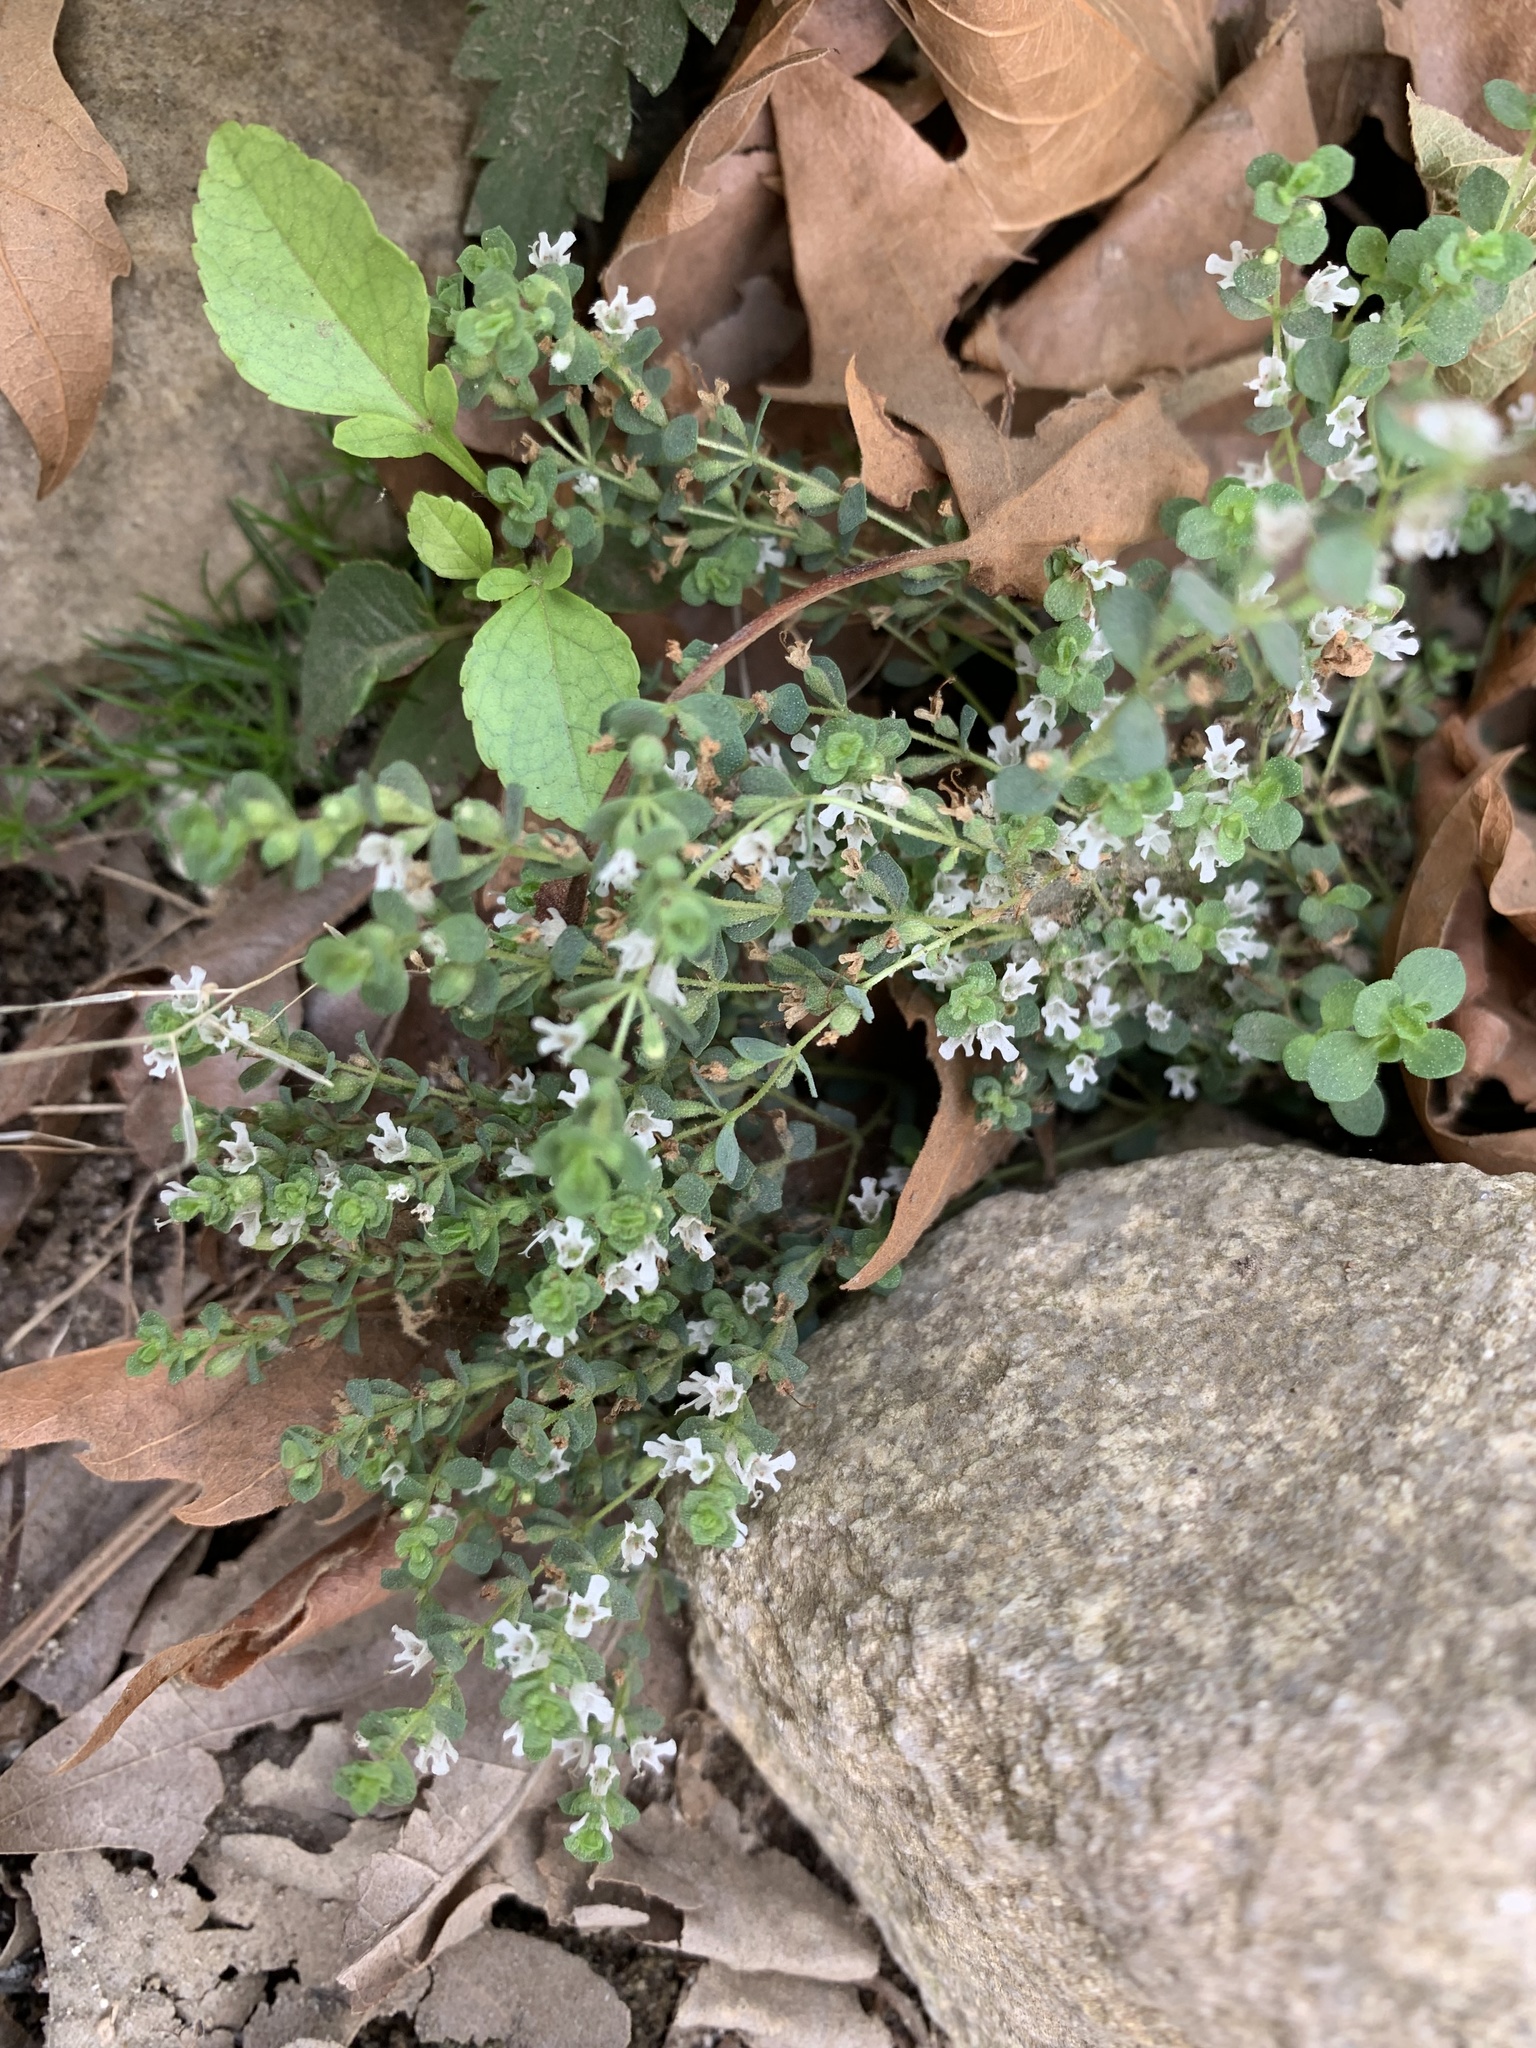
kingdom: Plantae
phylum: Tracheophyta
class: Magnoliopsida
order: Lamiales
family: Lamiaceae
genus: Origanum
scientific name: Origanum vulgare
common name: Wild marjoram
